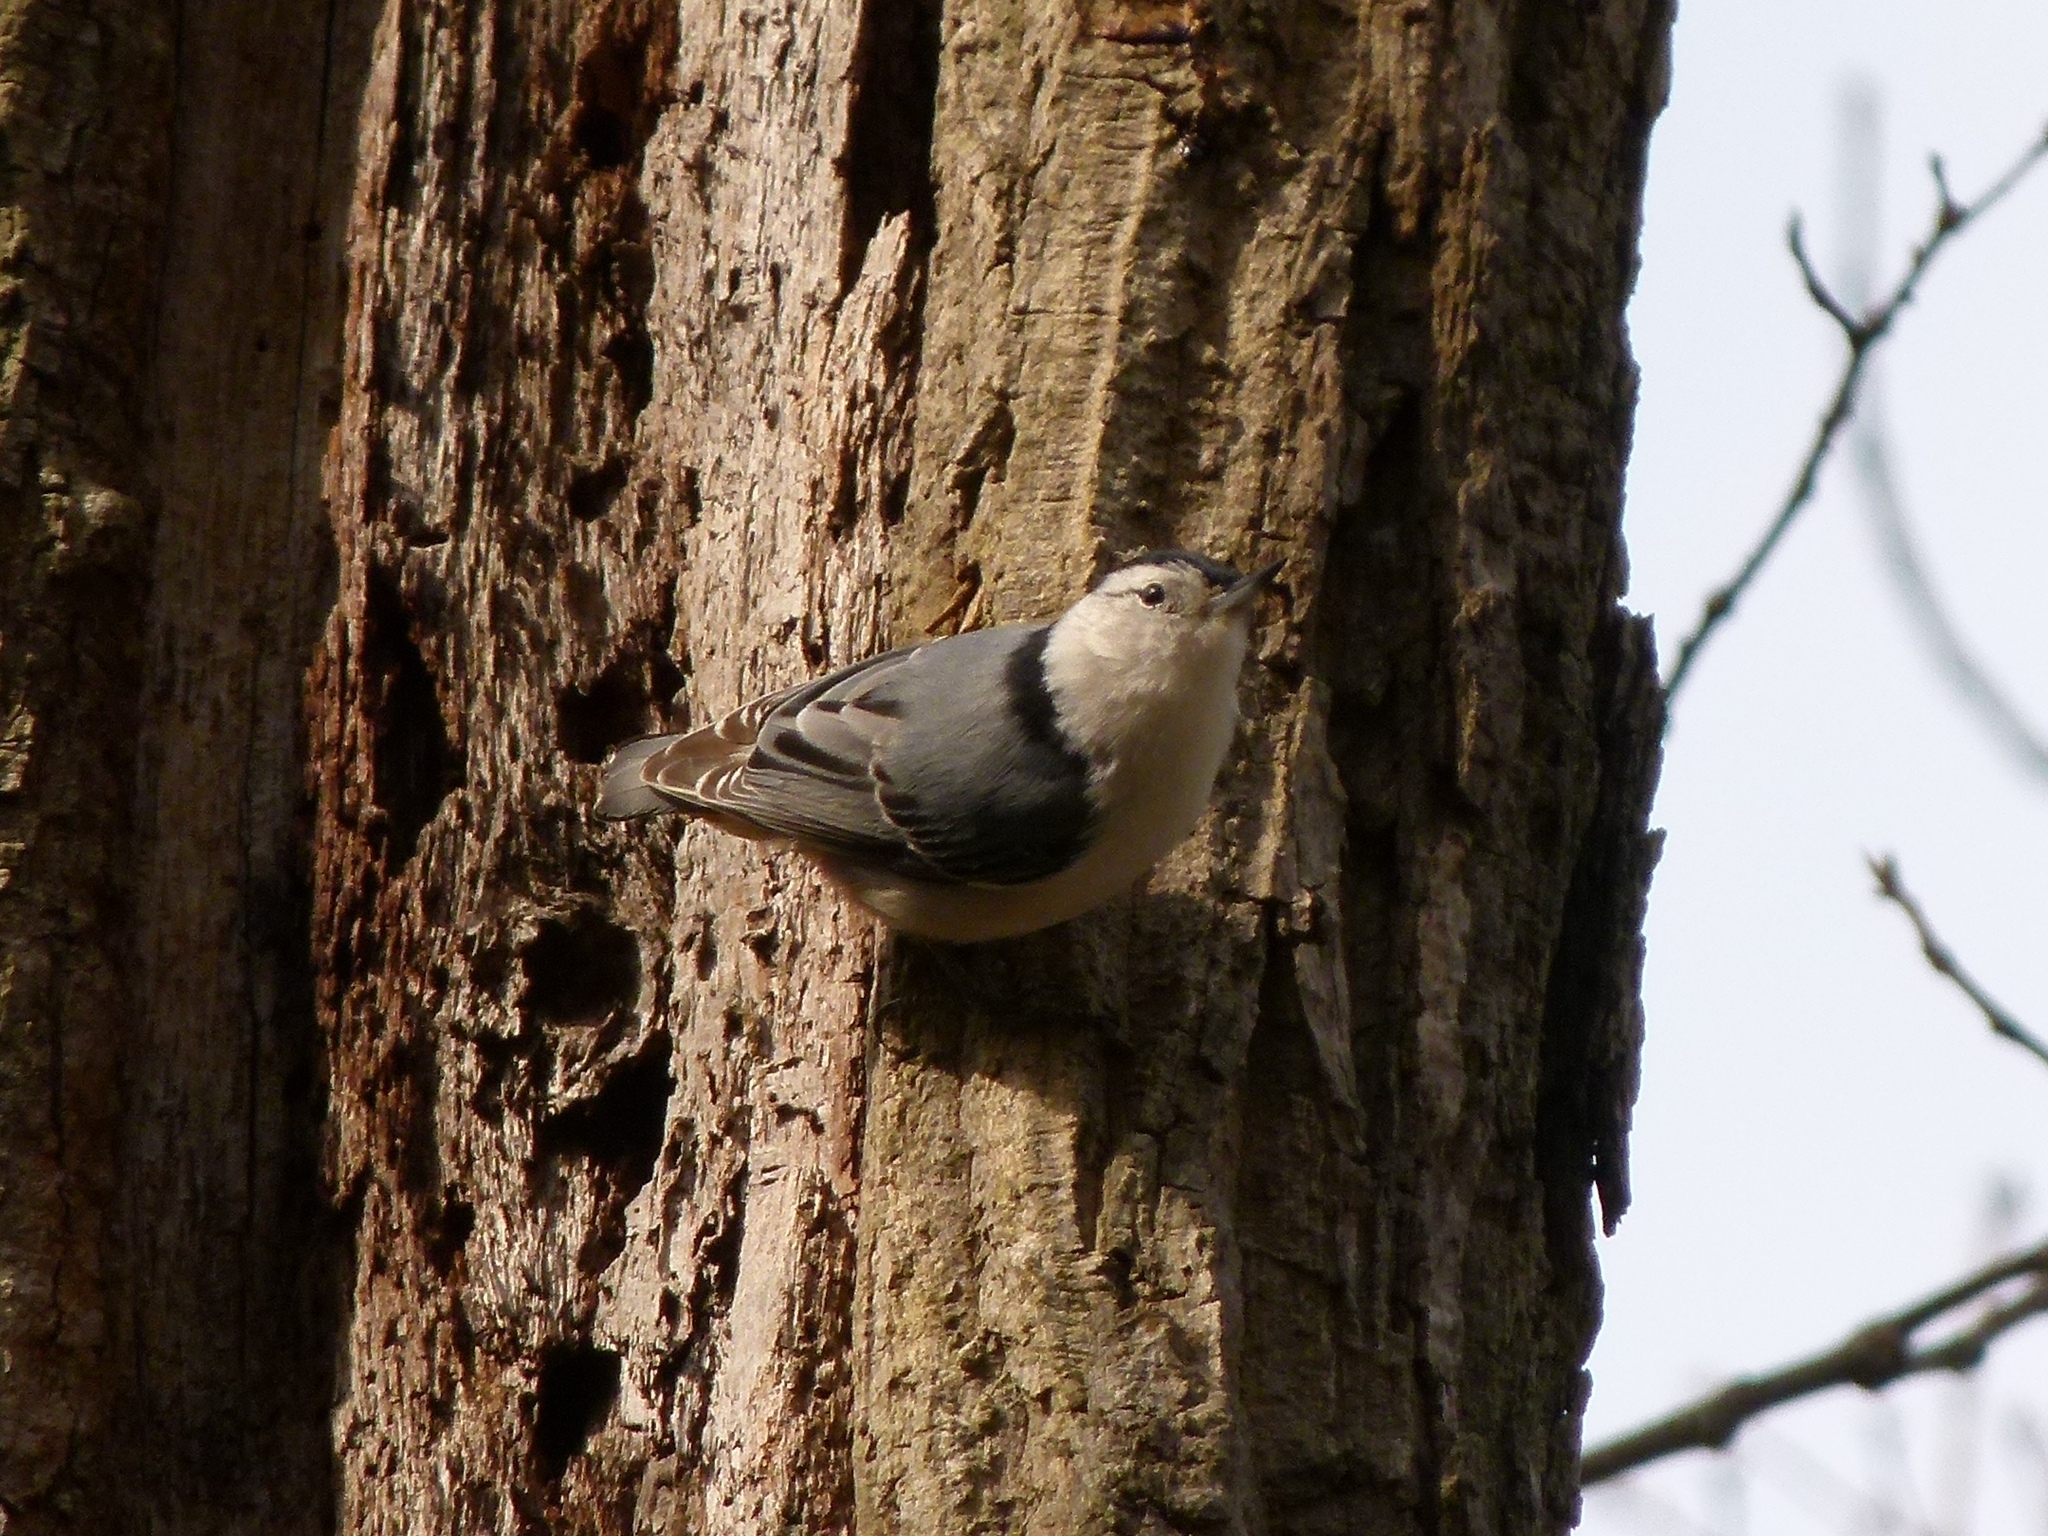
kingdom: Animalia
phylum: Chordata
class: Aves
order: Passeriformes
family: Sittidae
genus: Sitta
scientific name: Sitta carolinensis
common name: White-breasted nuthatch
